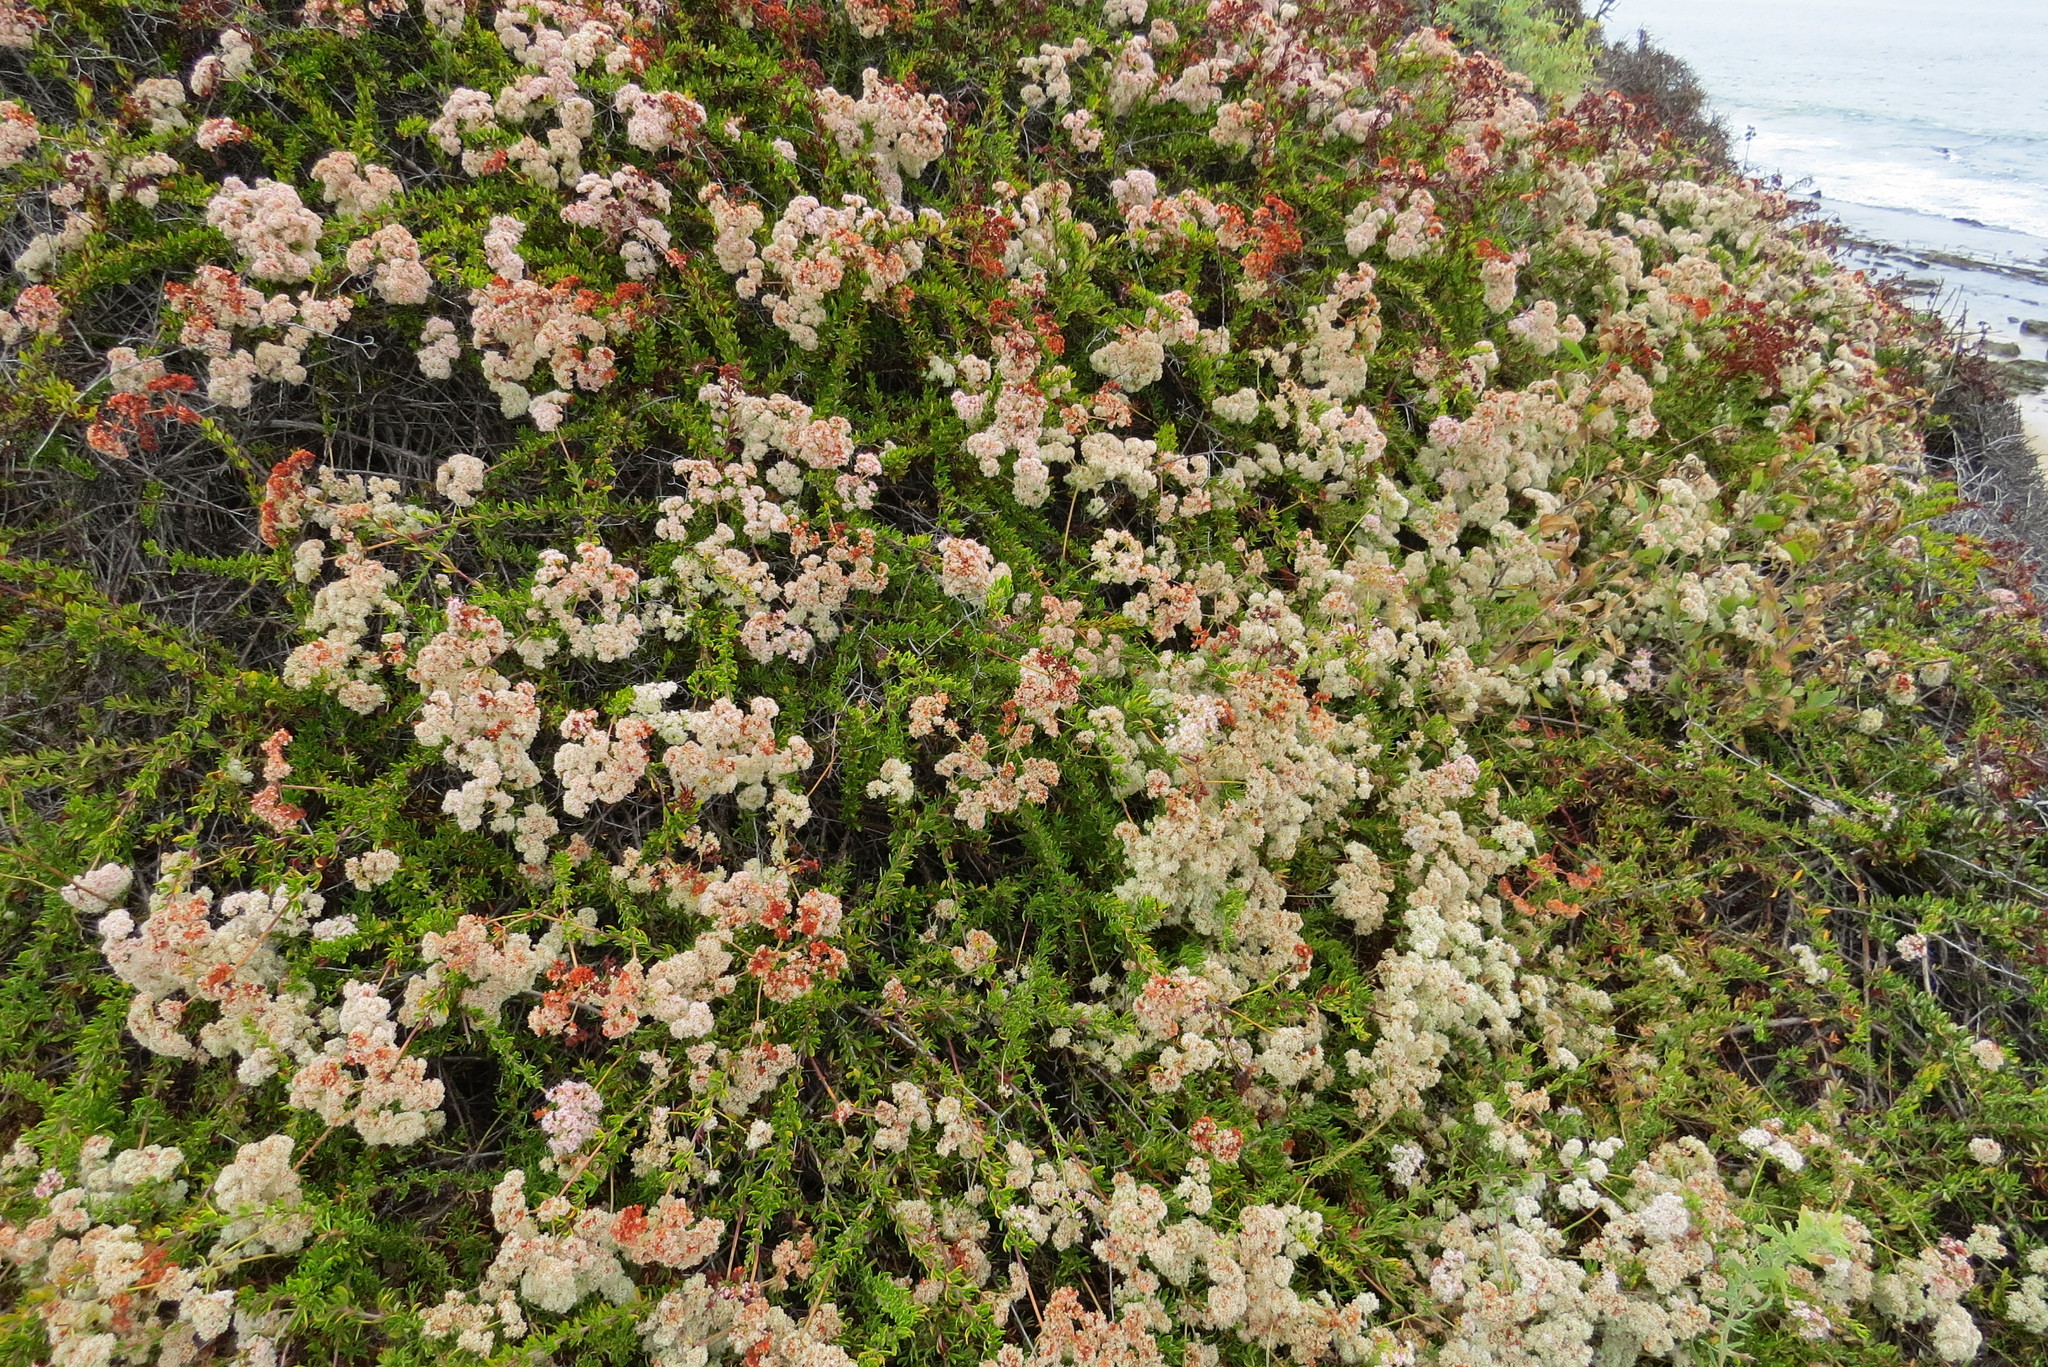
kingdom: Plantae
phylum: Tracheophyta
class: Magnoliopsida
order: Caryophyllales
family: Polygonaceae
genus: Eriogonum
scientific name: Eriogonum fasciculatum
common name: California wild buckwheat
